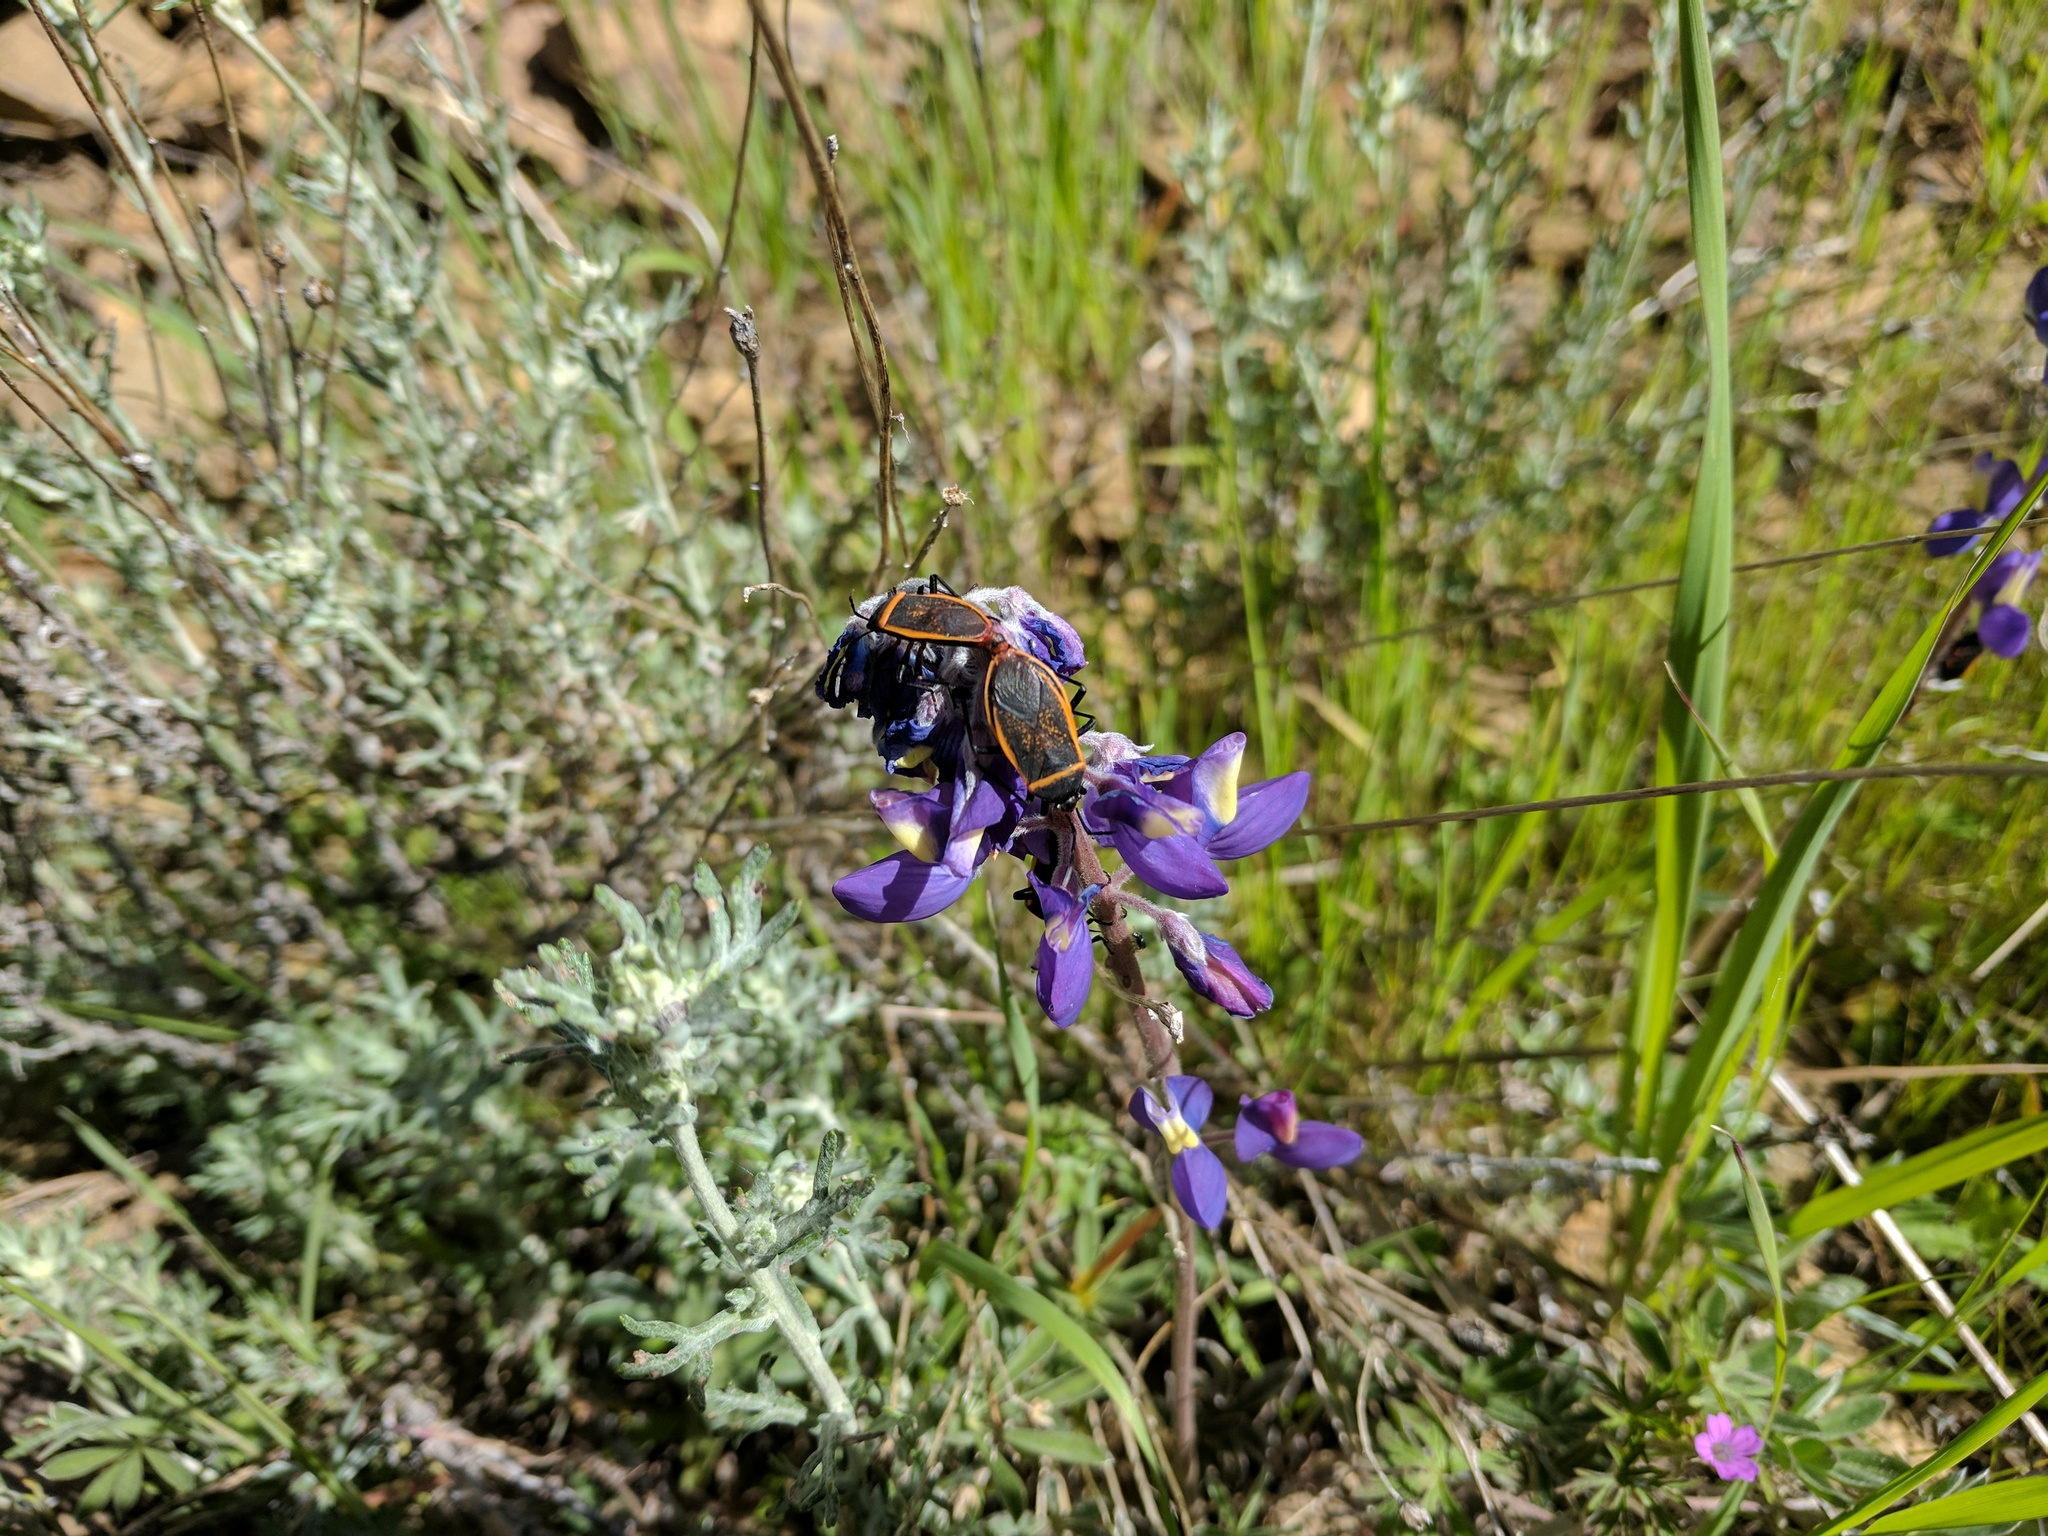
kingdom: Plantae
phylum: Tracheophyta
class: Magnoliopsida
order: Fabales
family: Fabaceae
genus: Lupinus
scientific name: Lupinus albifrons
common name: Foothill lupine
